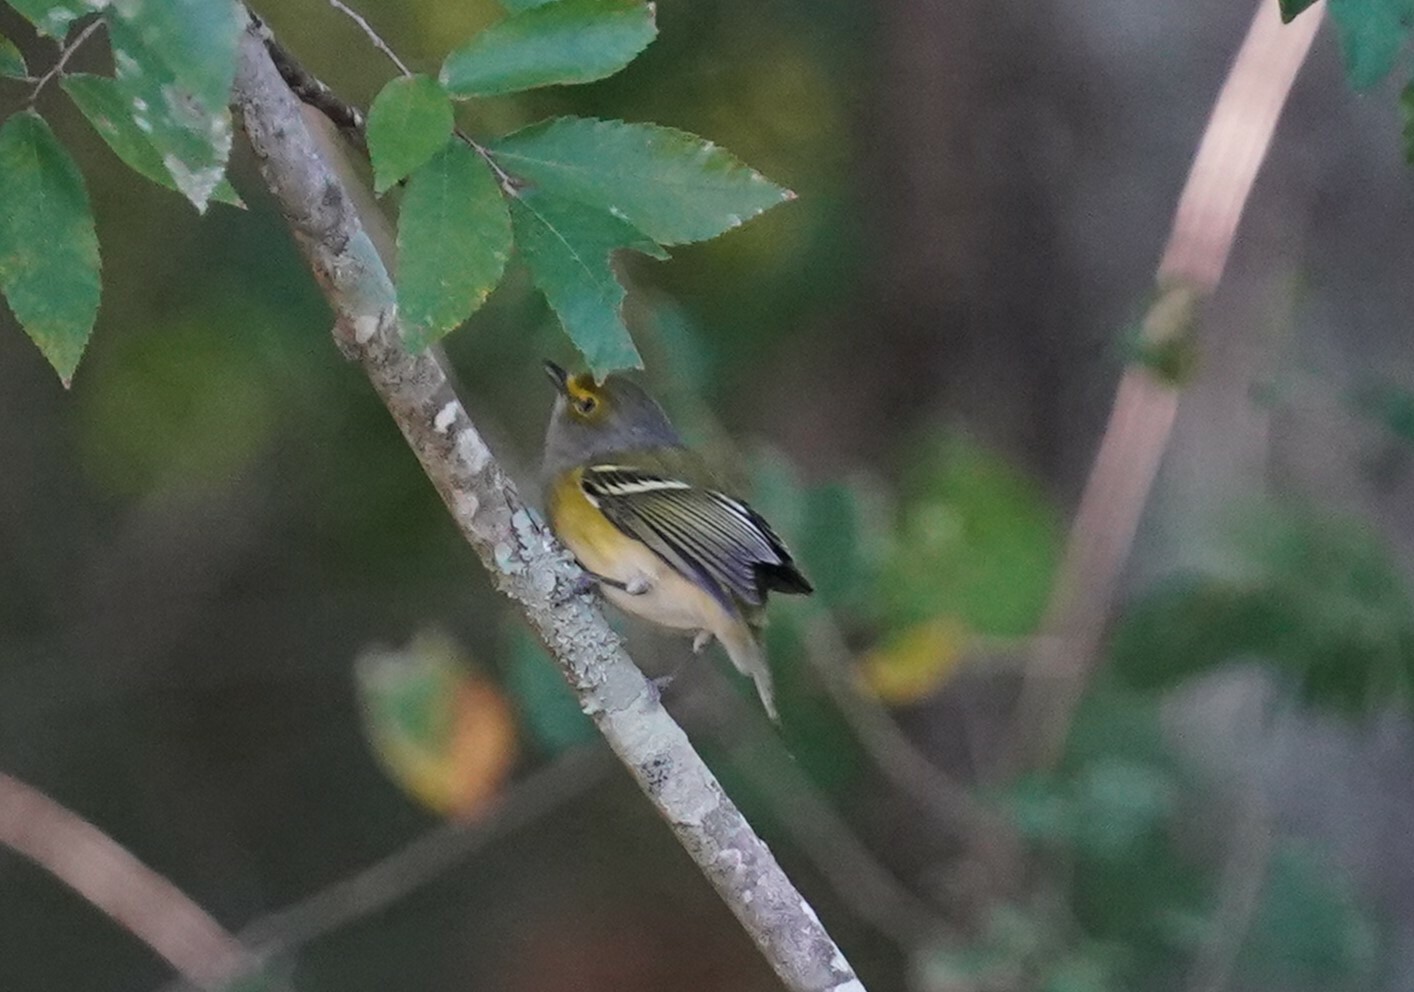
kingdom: Animalia
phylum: Chordata
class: Aves
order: Passeriformes
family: Vireonidae
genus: Vireo
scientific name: Vireo griseus
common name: White-eyed vireo
